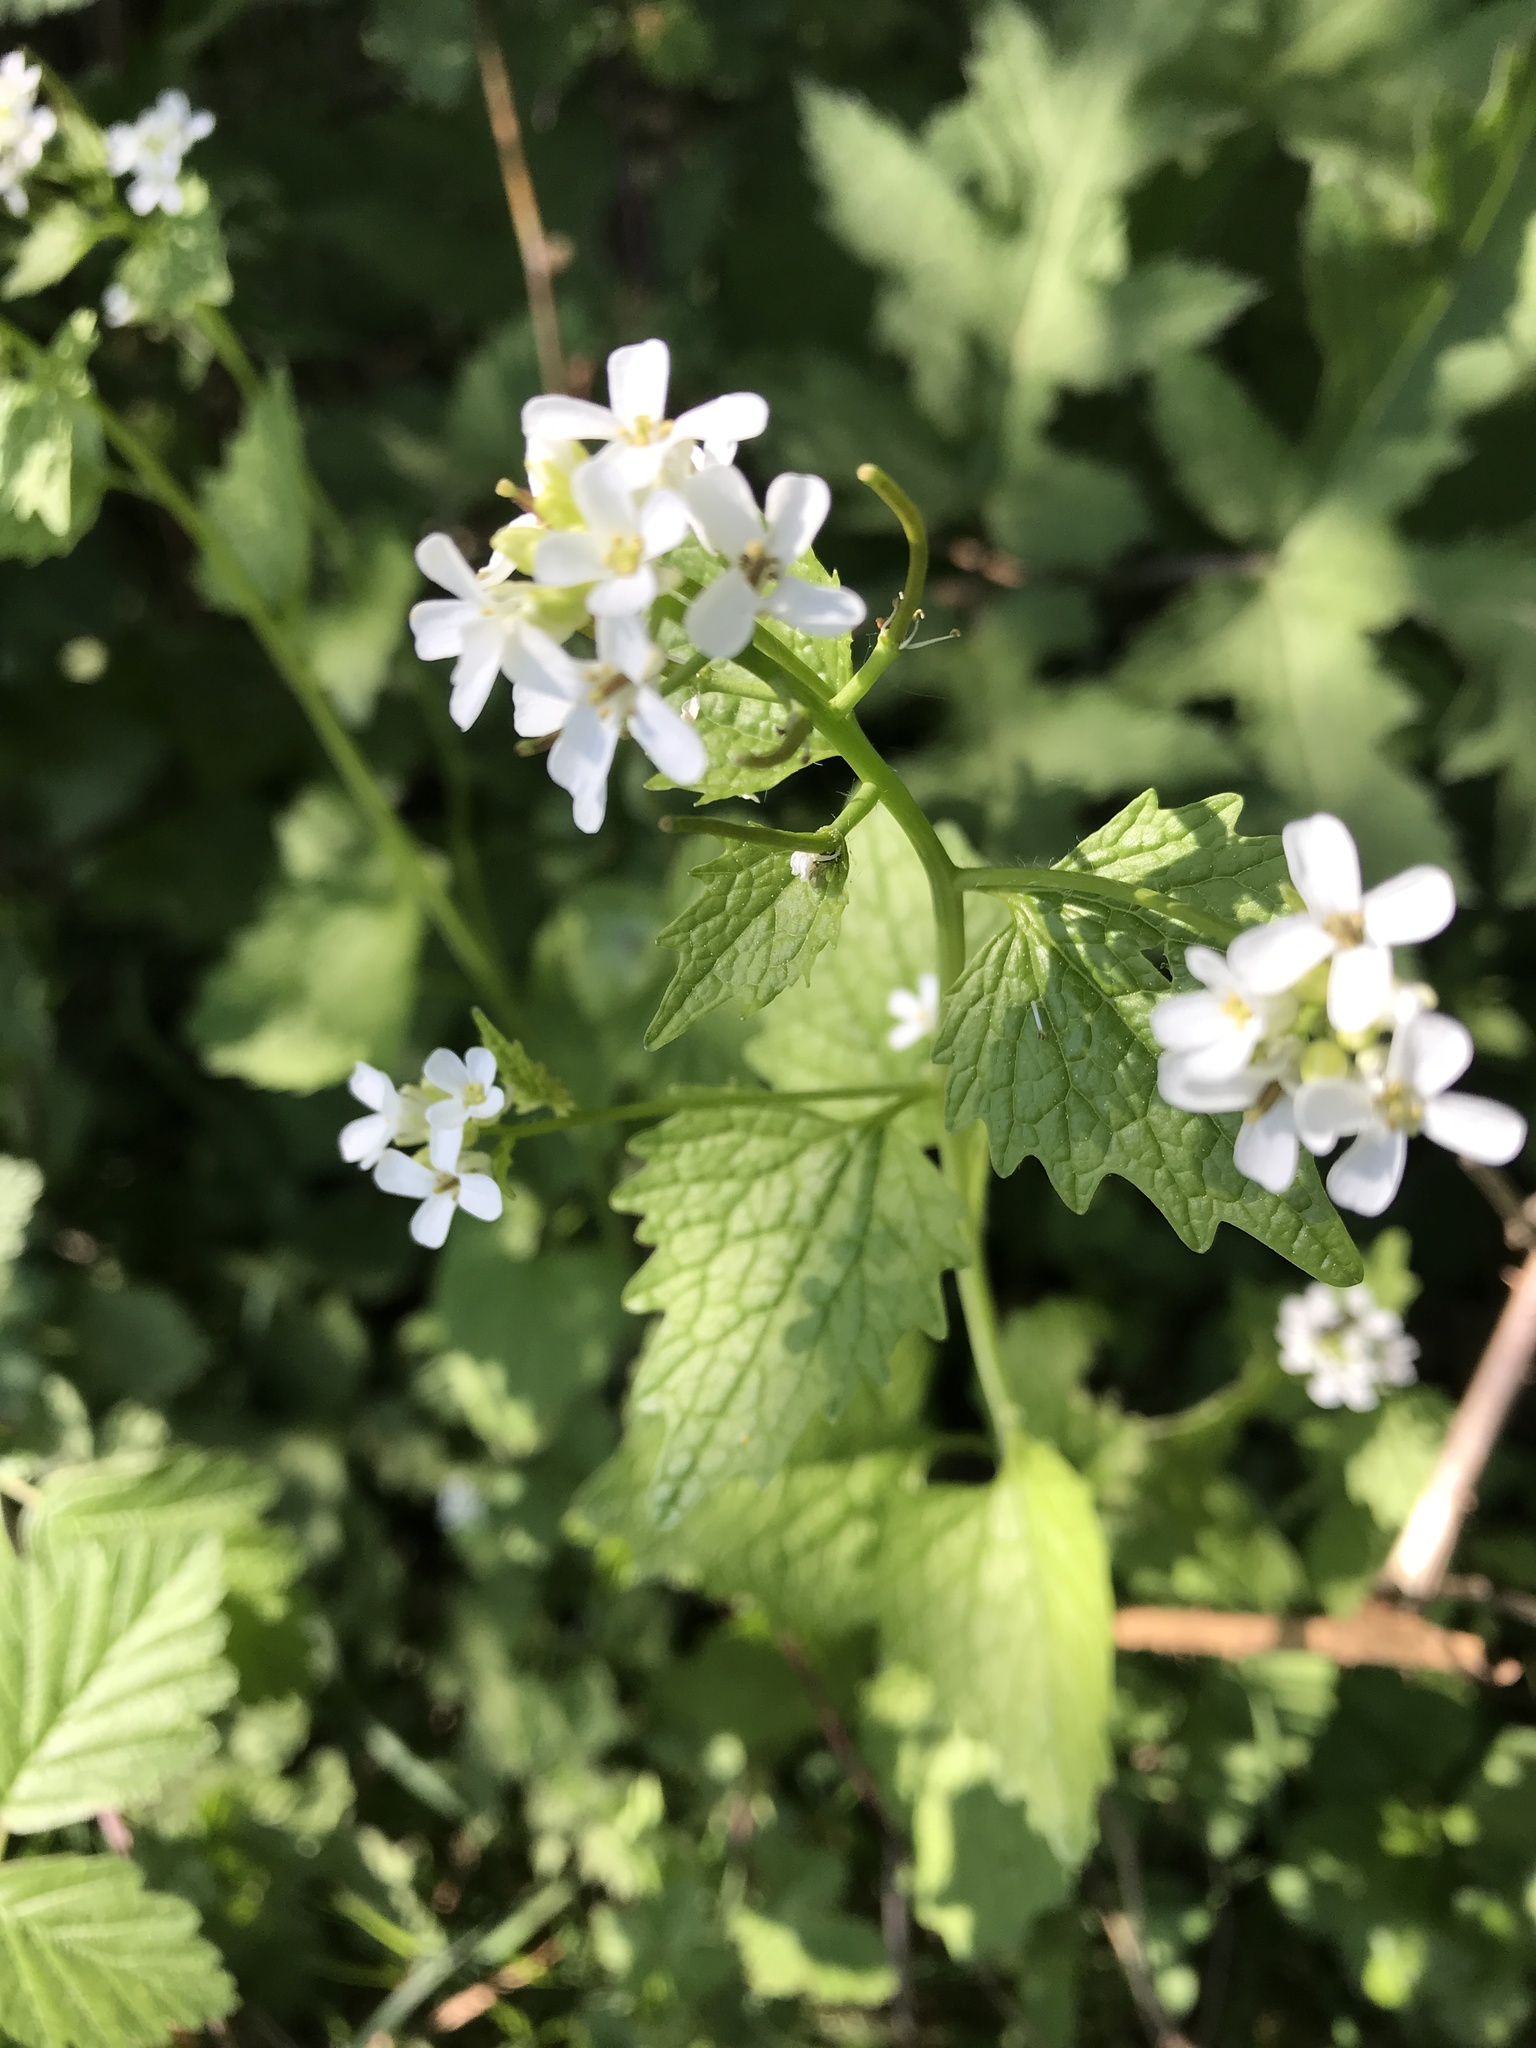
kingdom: Plantae
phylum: Tracheophyta
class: Magnoliopsida
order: Brassicales
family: Brassicaceae
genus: Alliaria
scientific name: Alliaria petiolata
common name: Garlic mustard
